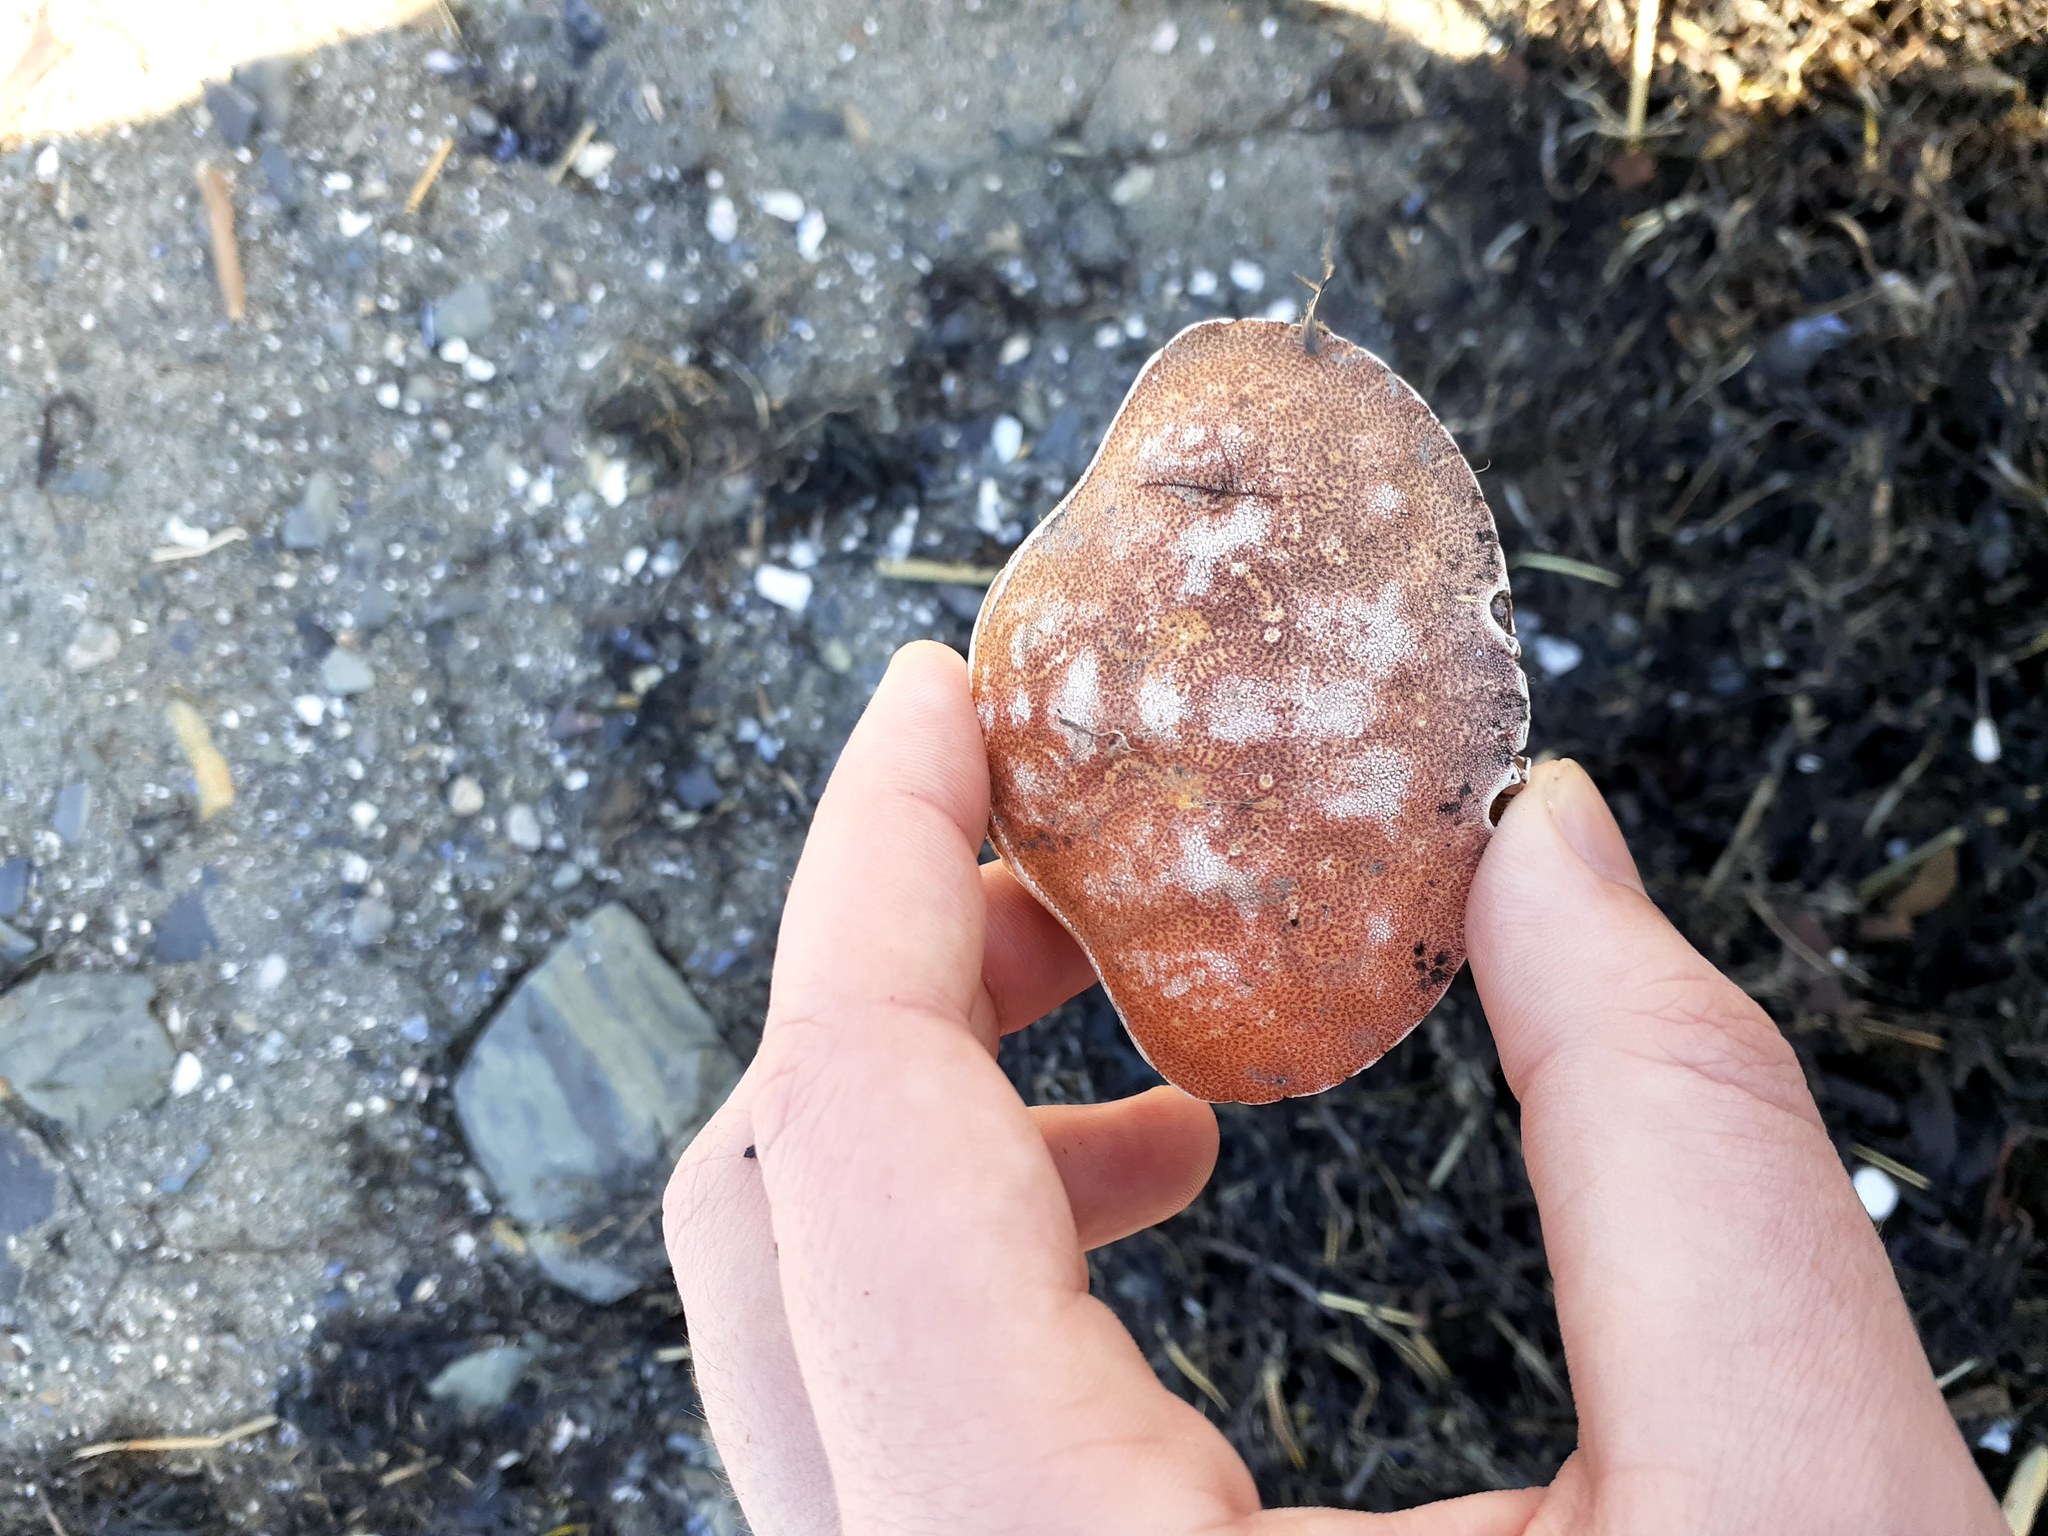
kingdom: Animalia
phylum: Arthropoda
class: Malacostraca
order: Decapoda
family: Cancridae
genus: Cancer
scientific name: Cancer irroratus
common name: Atlantic rock crab
